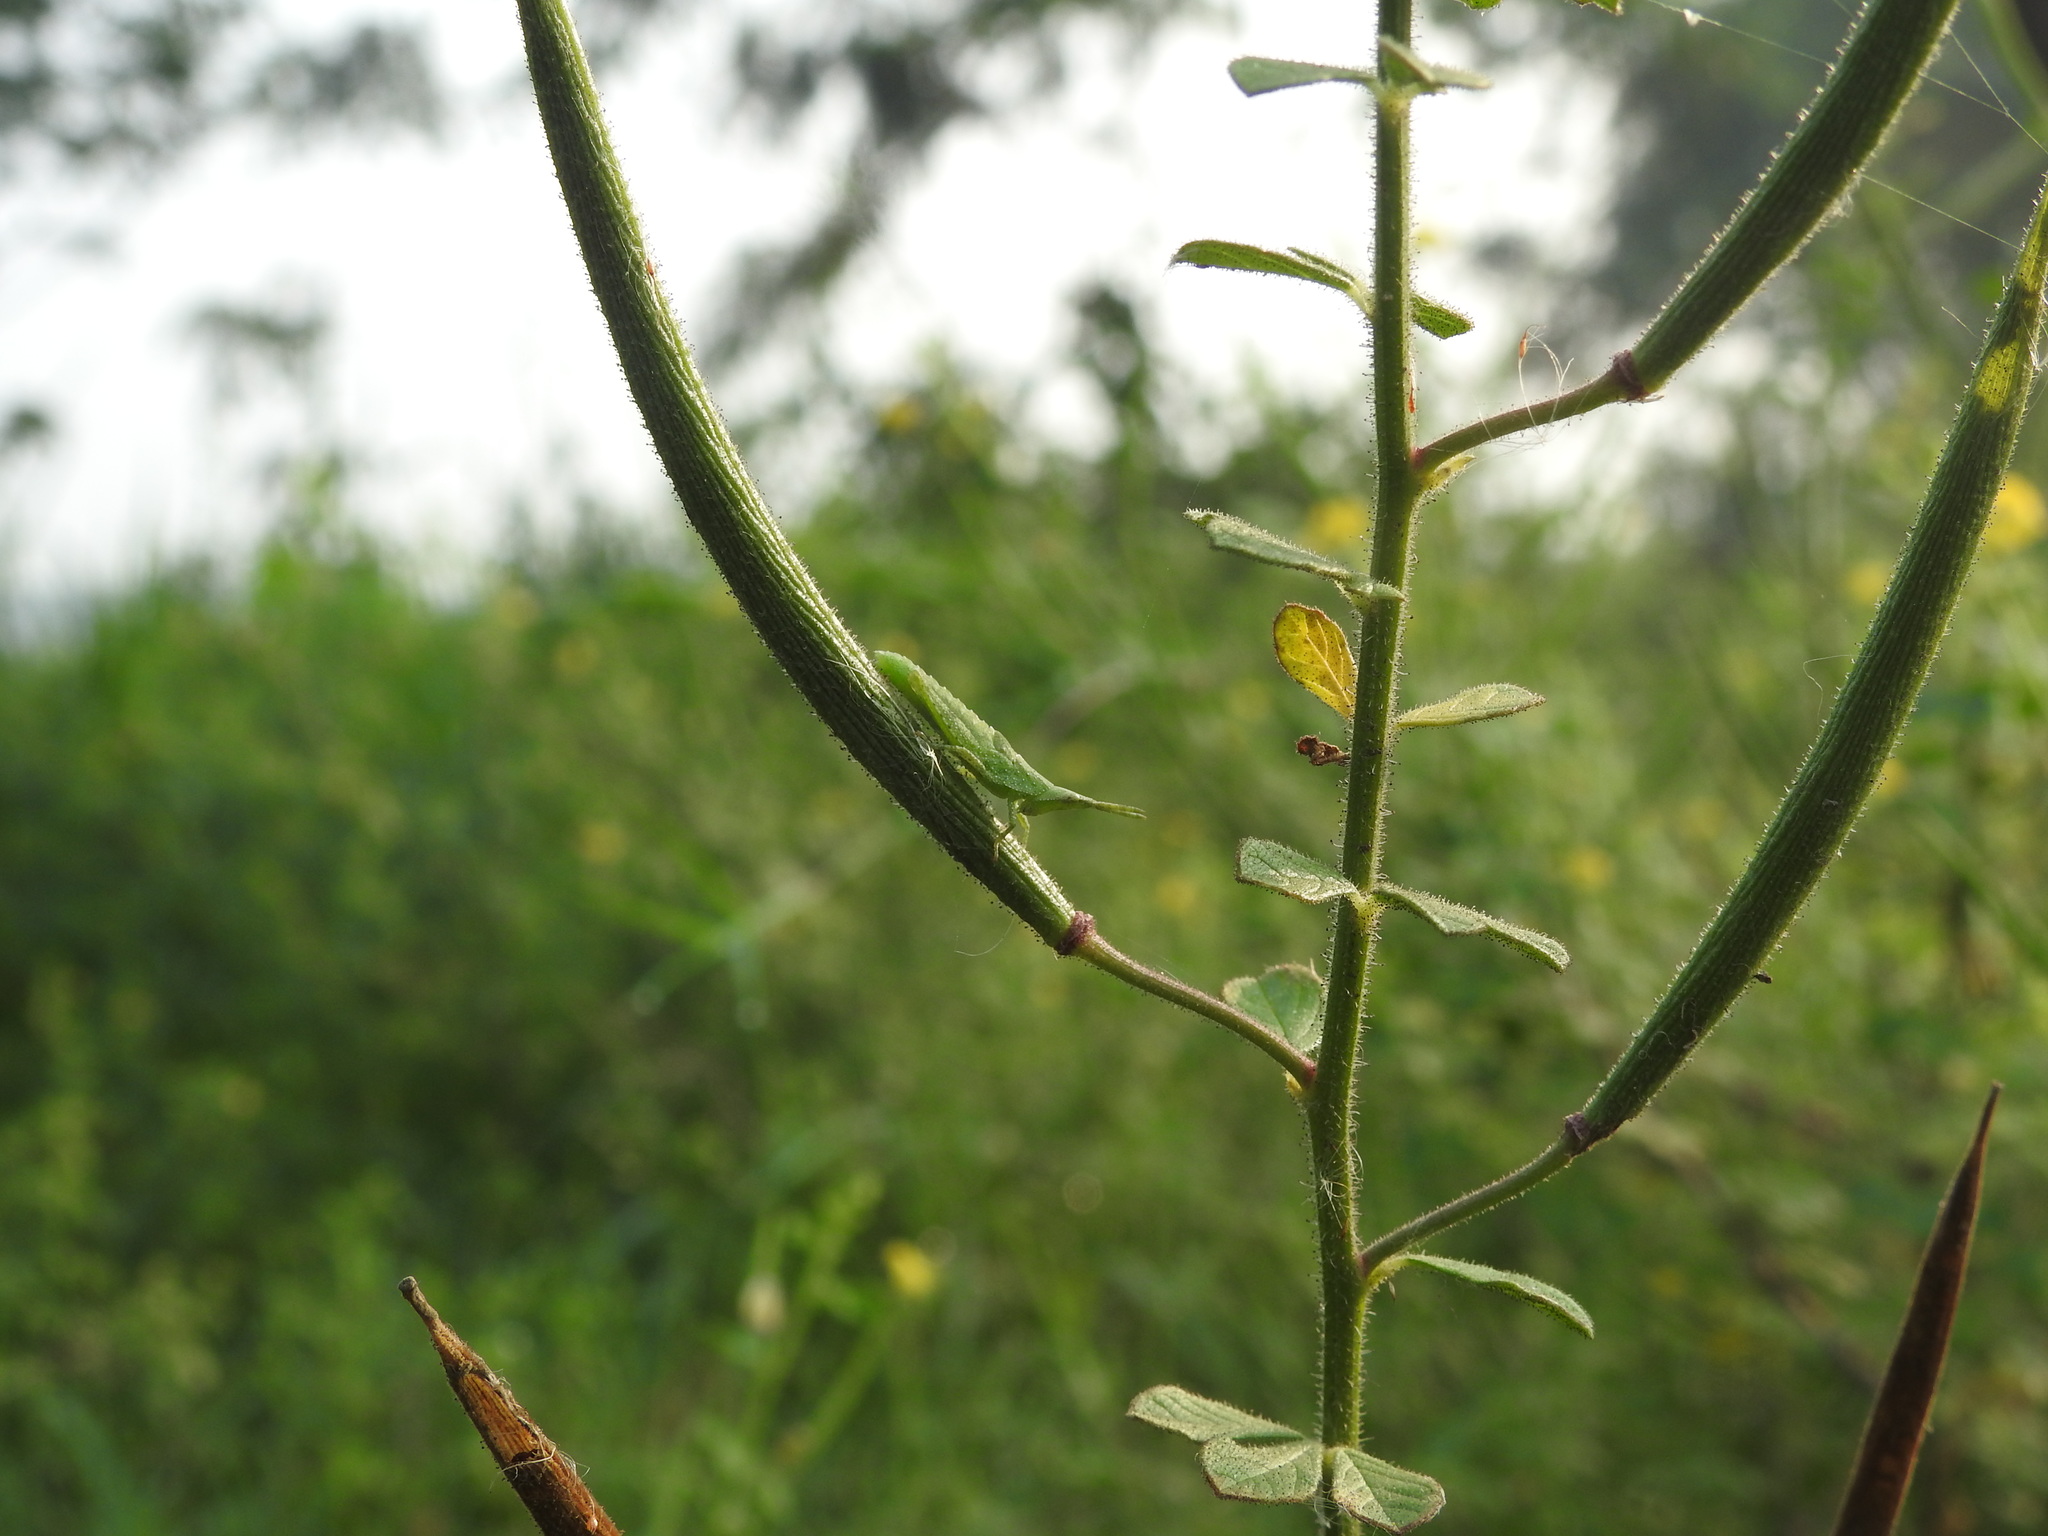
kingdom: Plantae
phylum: Tracheophyta
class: Magnoliopsida
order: Brassicales
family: Cleomaceae
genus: Arivela
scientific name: Arivela viscosa
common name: Asian spiderflower
